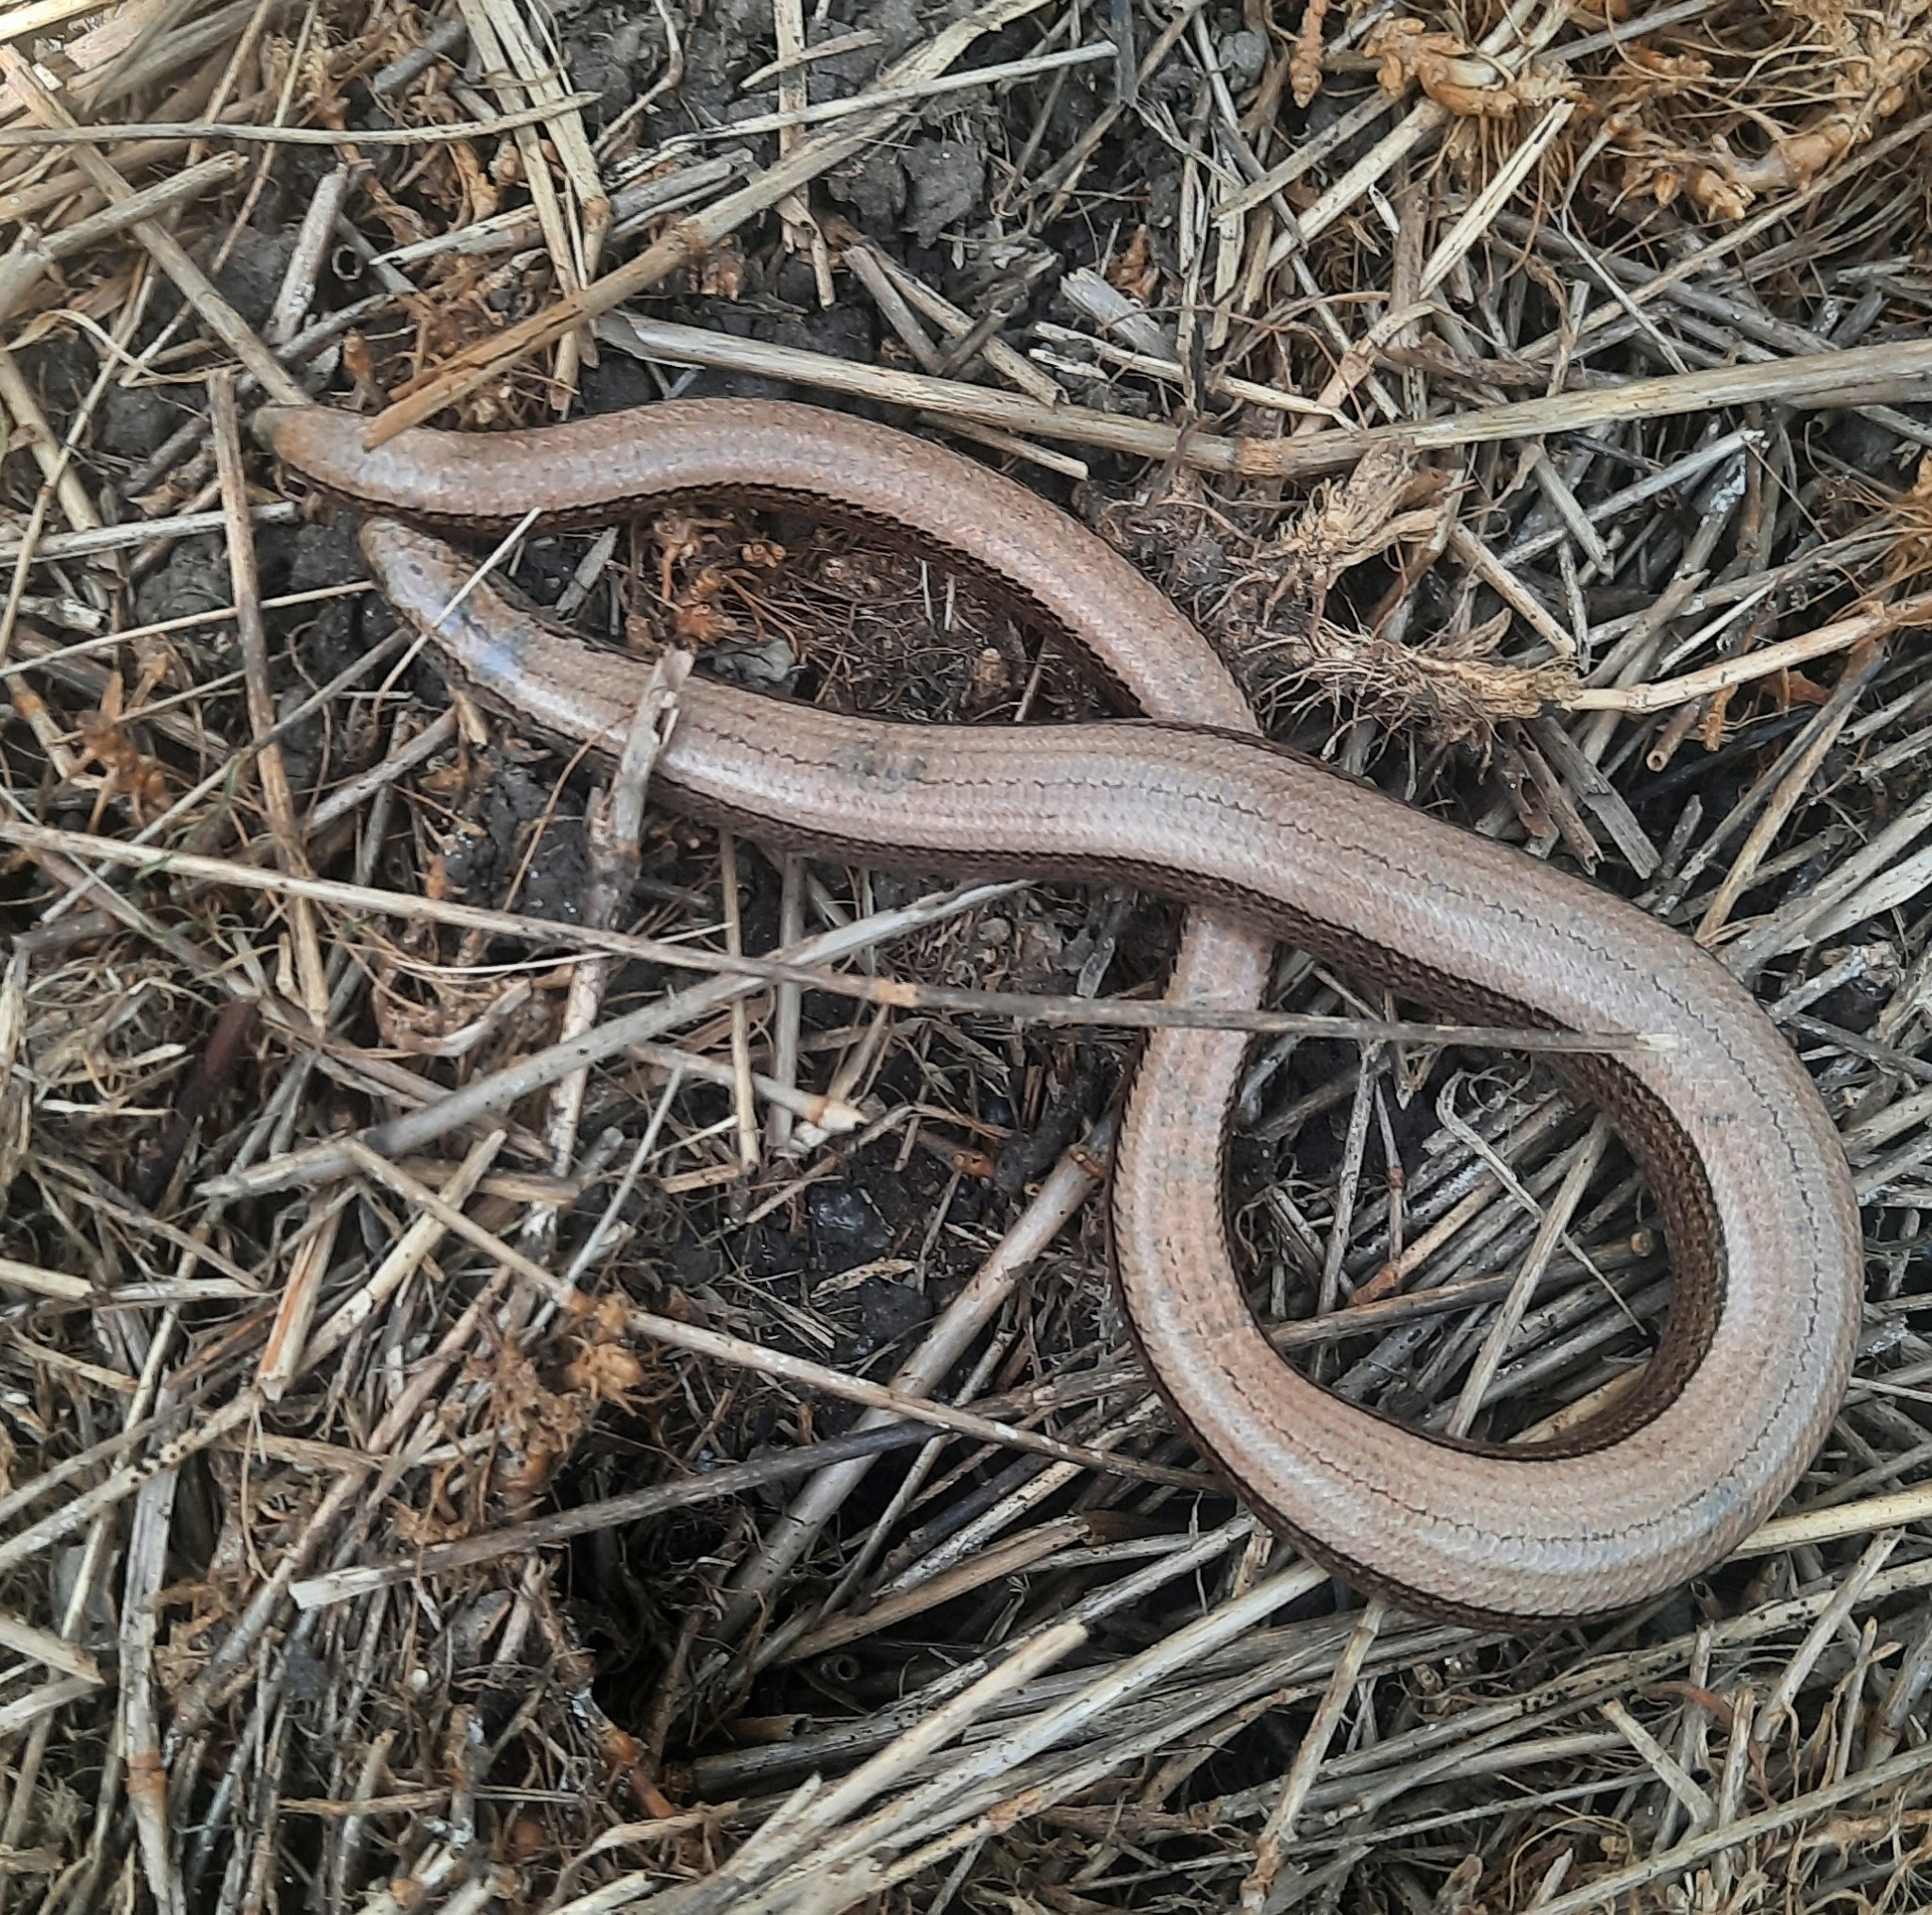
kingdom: Animalia
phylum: Chordata
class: Squamata
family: Anguidae
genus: Anguis
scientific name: Anguis fragilis
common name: Slow worm
